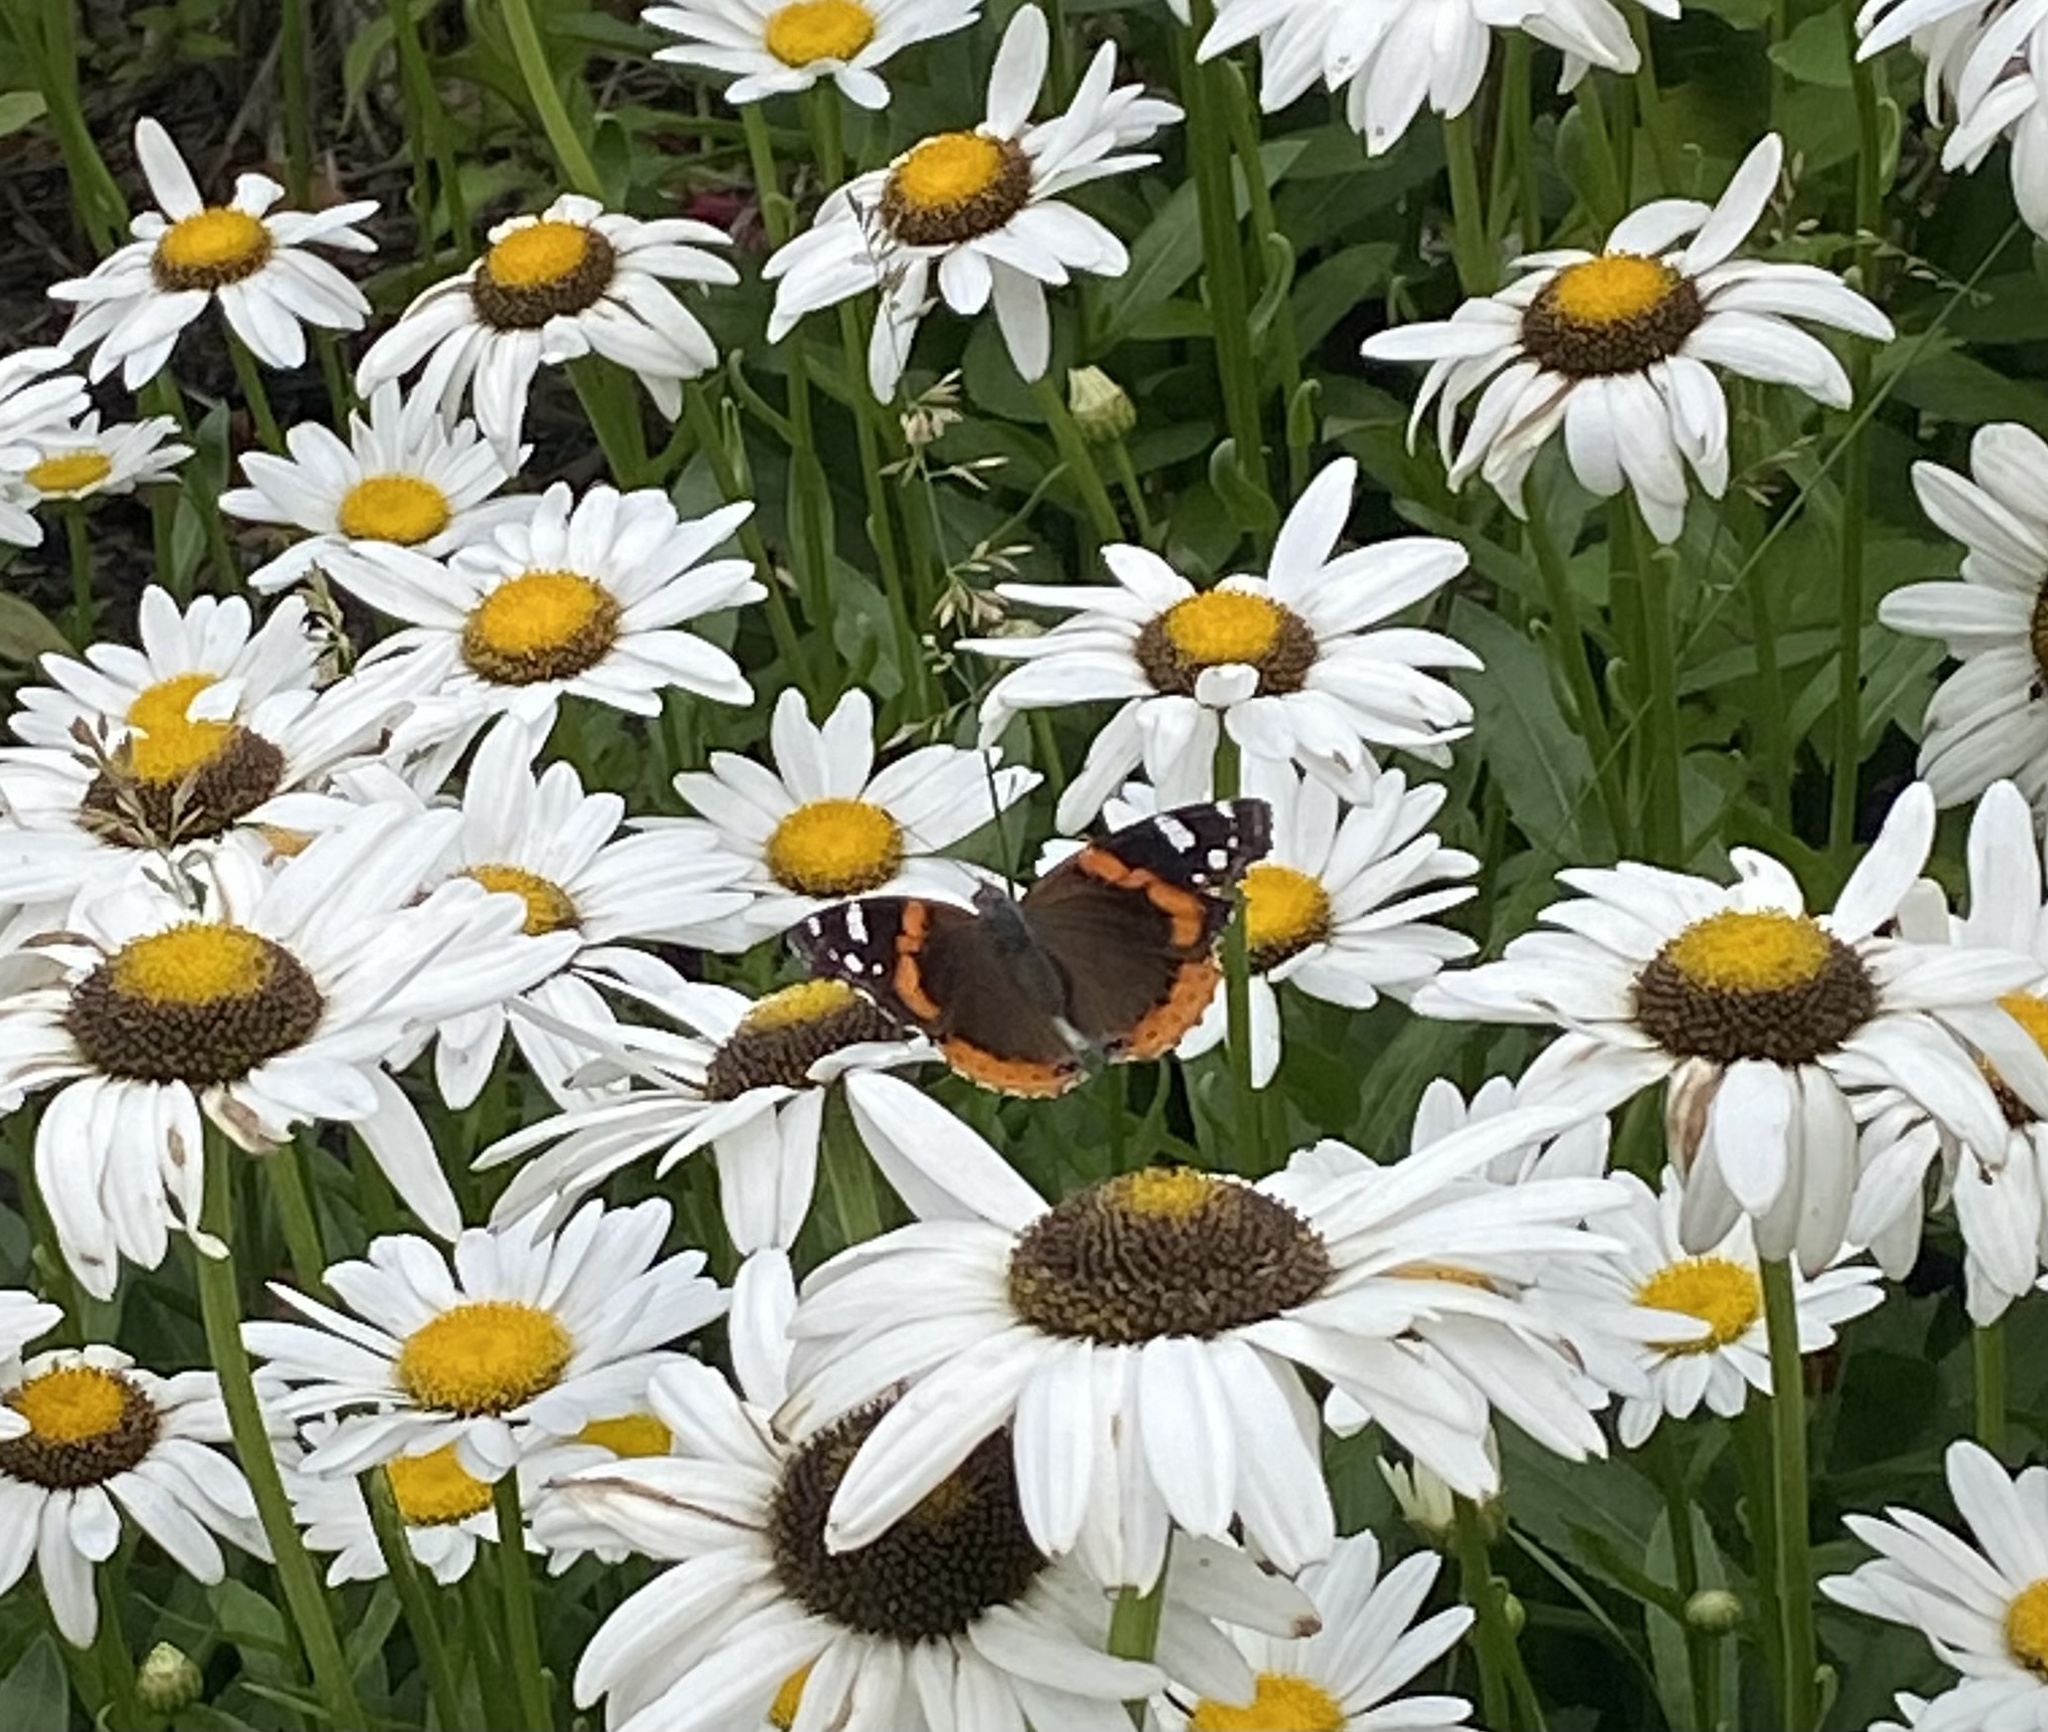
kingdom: Animalia
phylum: Arthropoda
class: Insecta
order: Lepidoptera
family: Nymphalidae
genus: Vanessa
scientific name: Vanessa atalanta
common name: Red admiral
